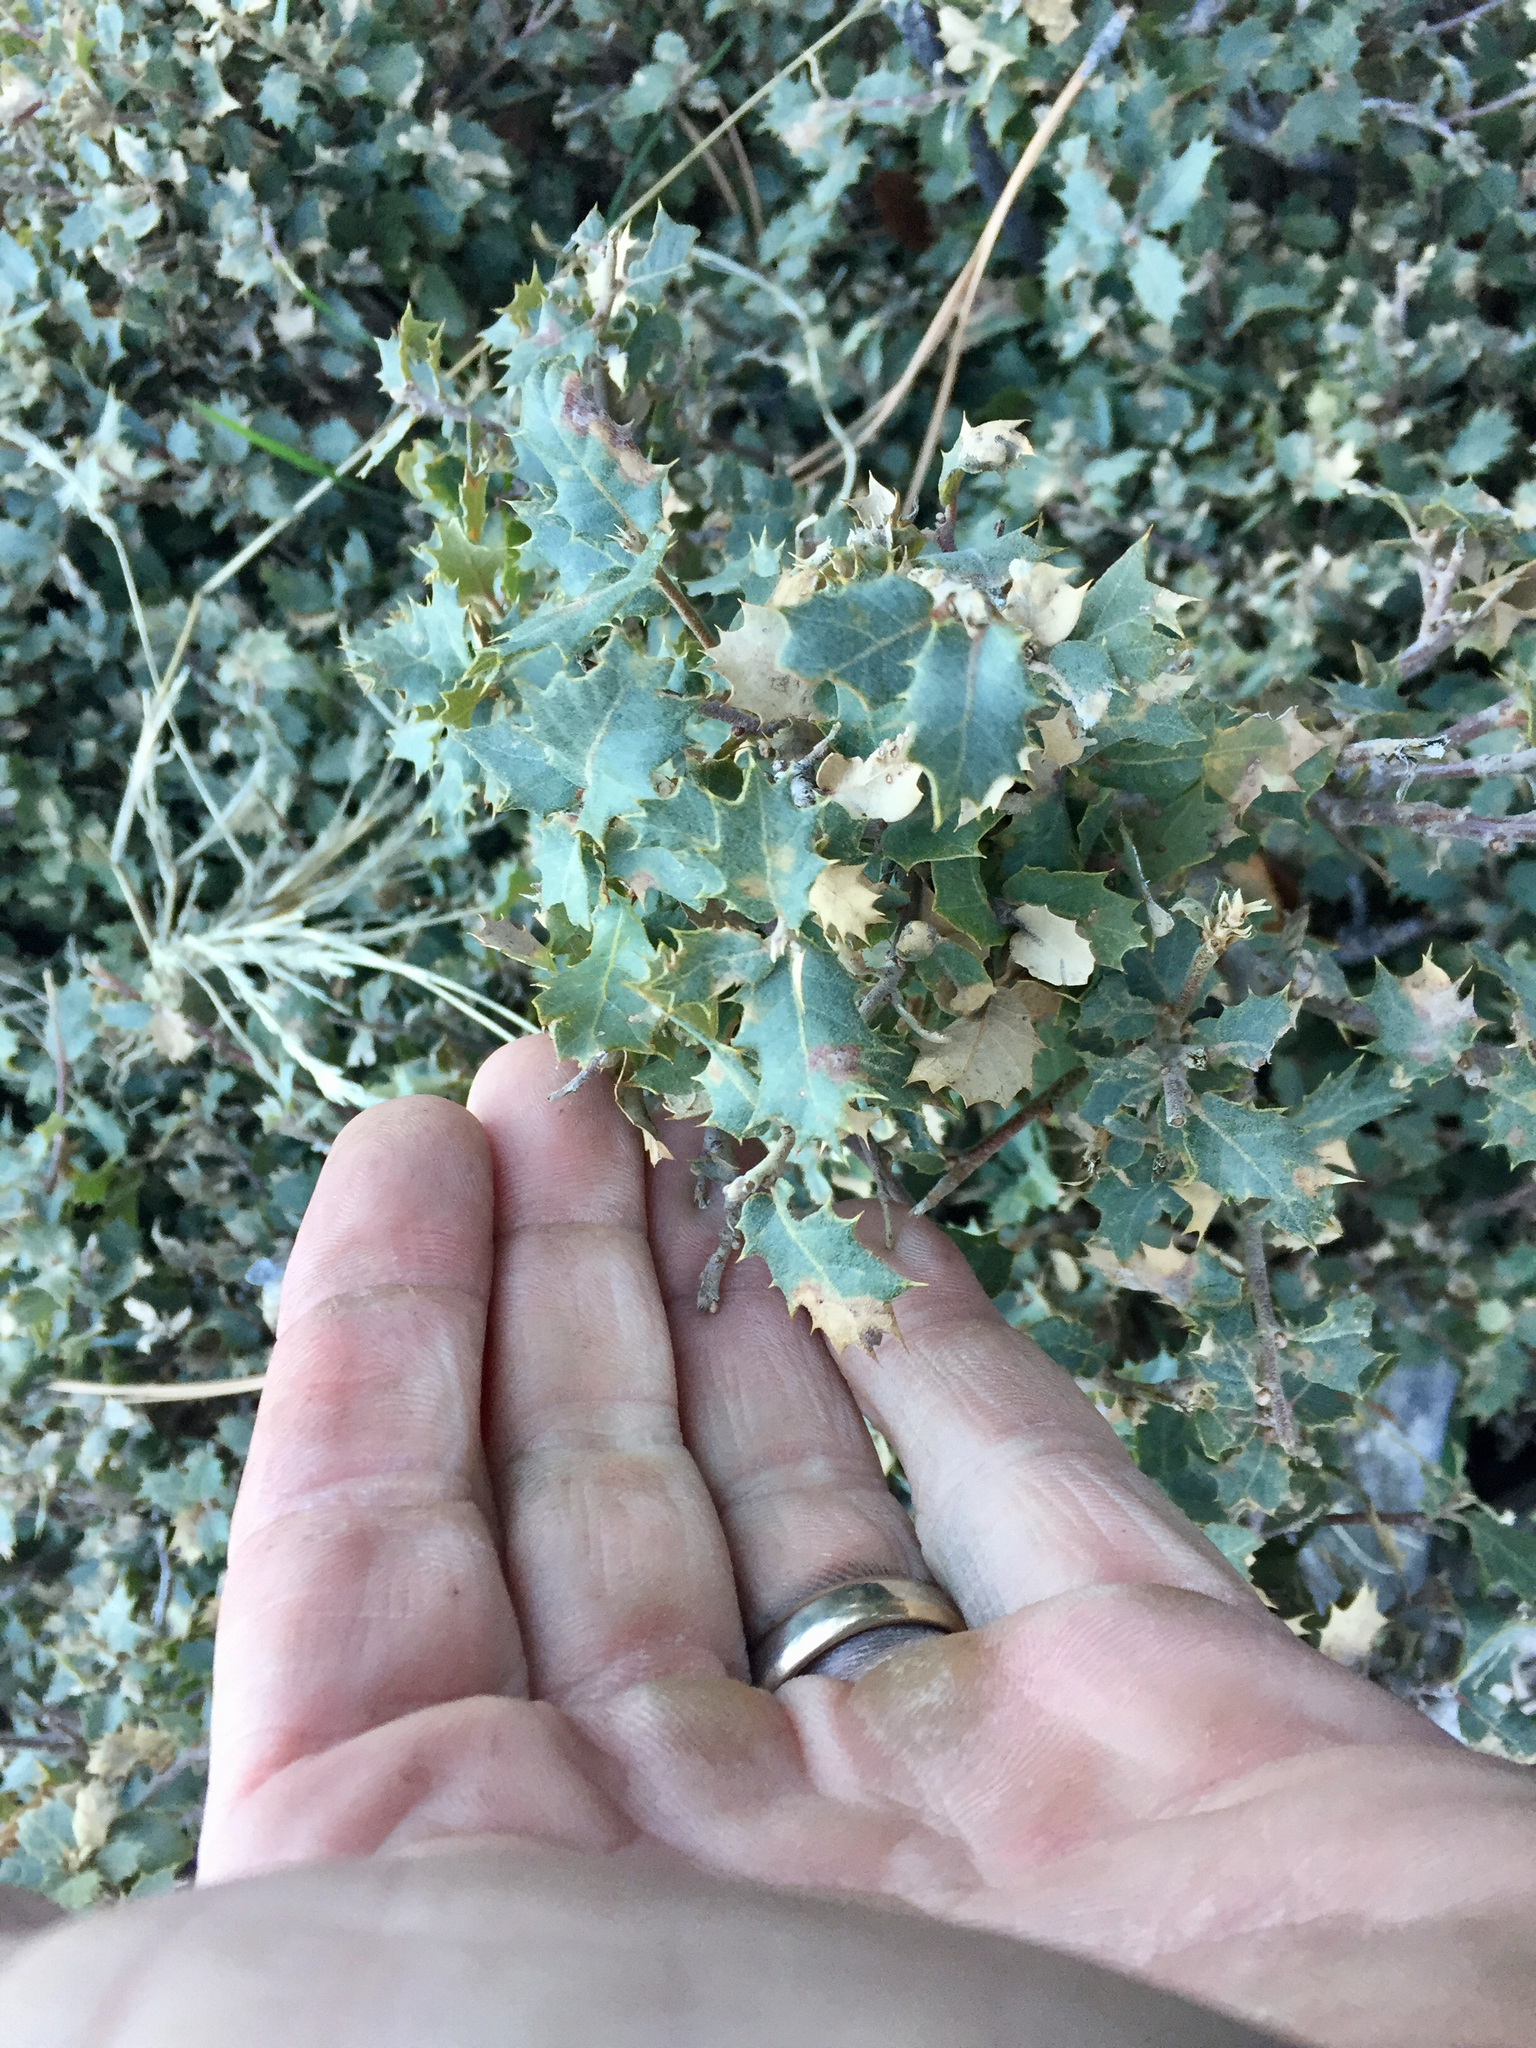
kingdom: Plantae
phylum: Tracheophyta
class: Magnoliopsida
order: Fagales
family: Fagaceae
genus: Quercus
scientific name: Quercus turbinella
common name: Sonoran scrub oak
